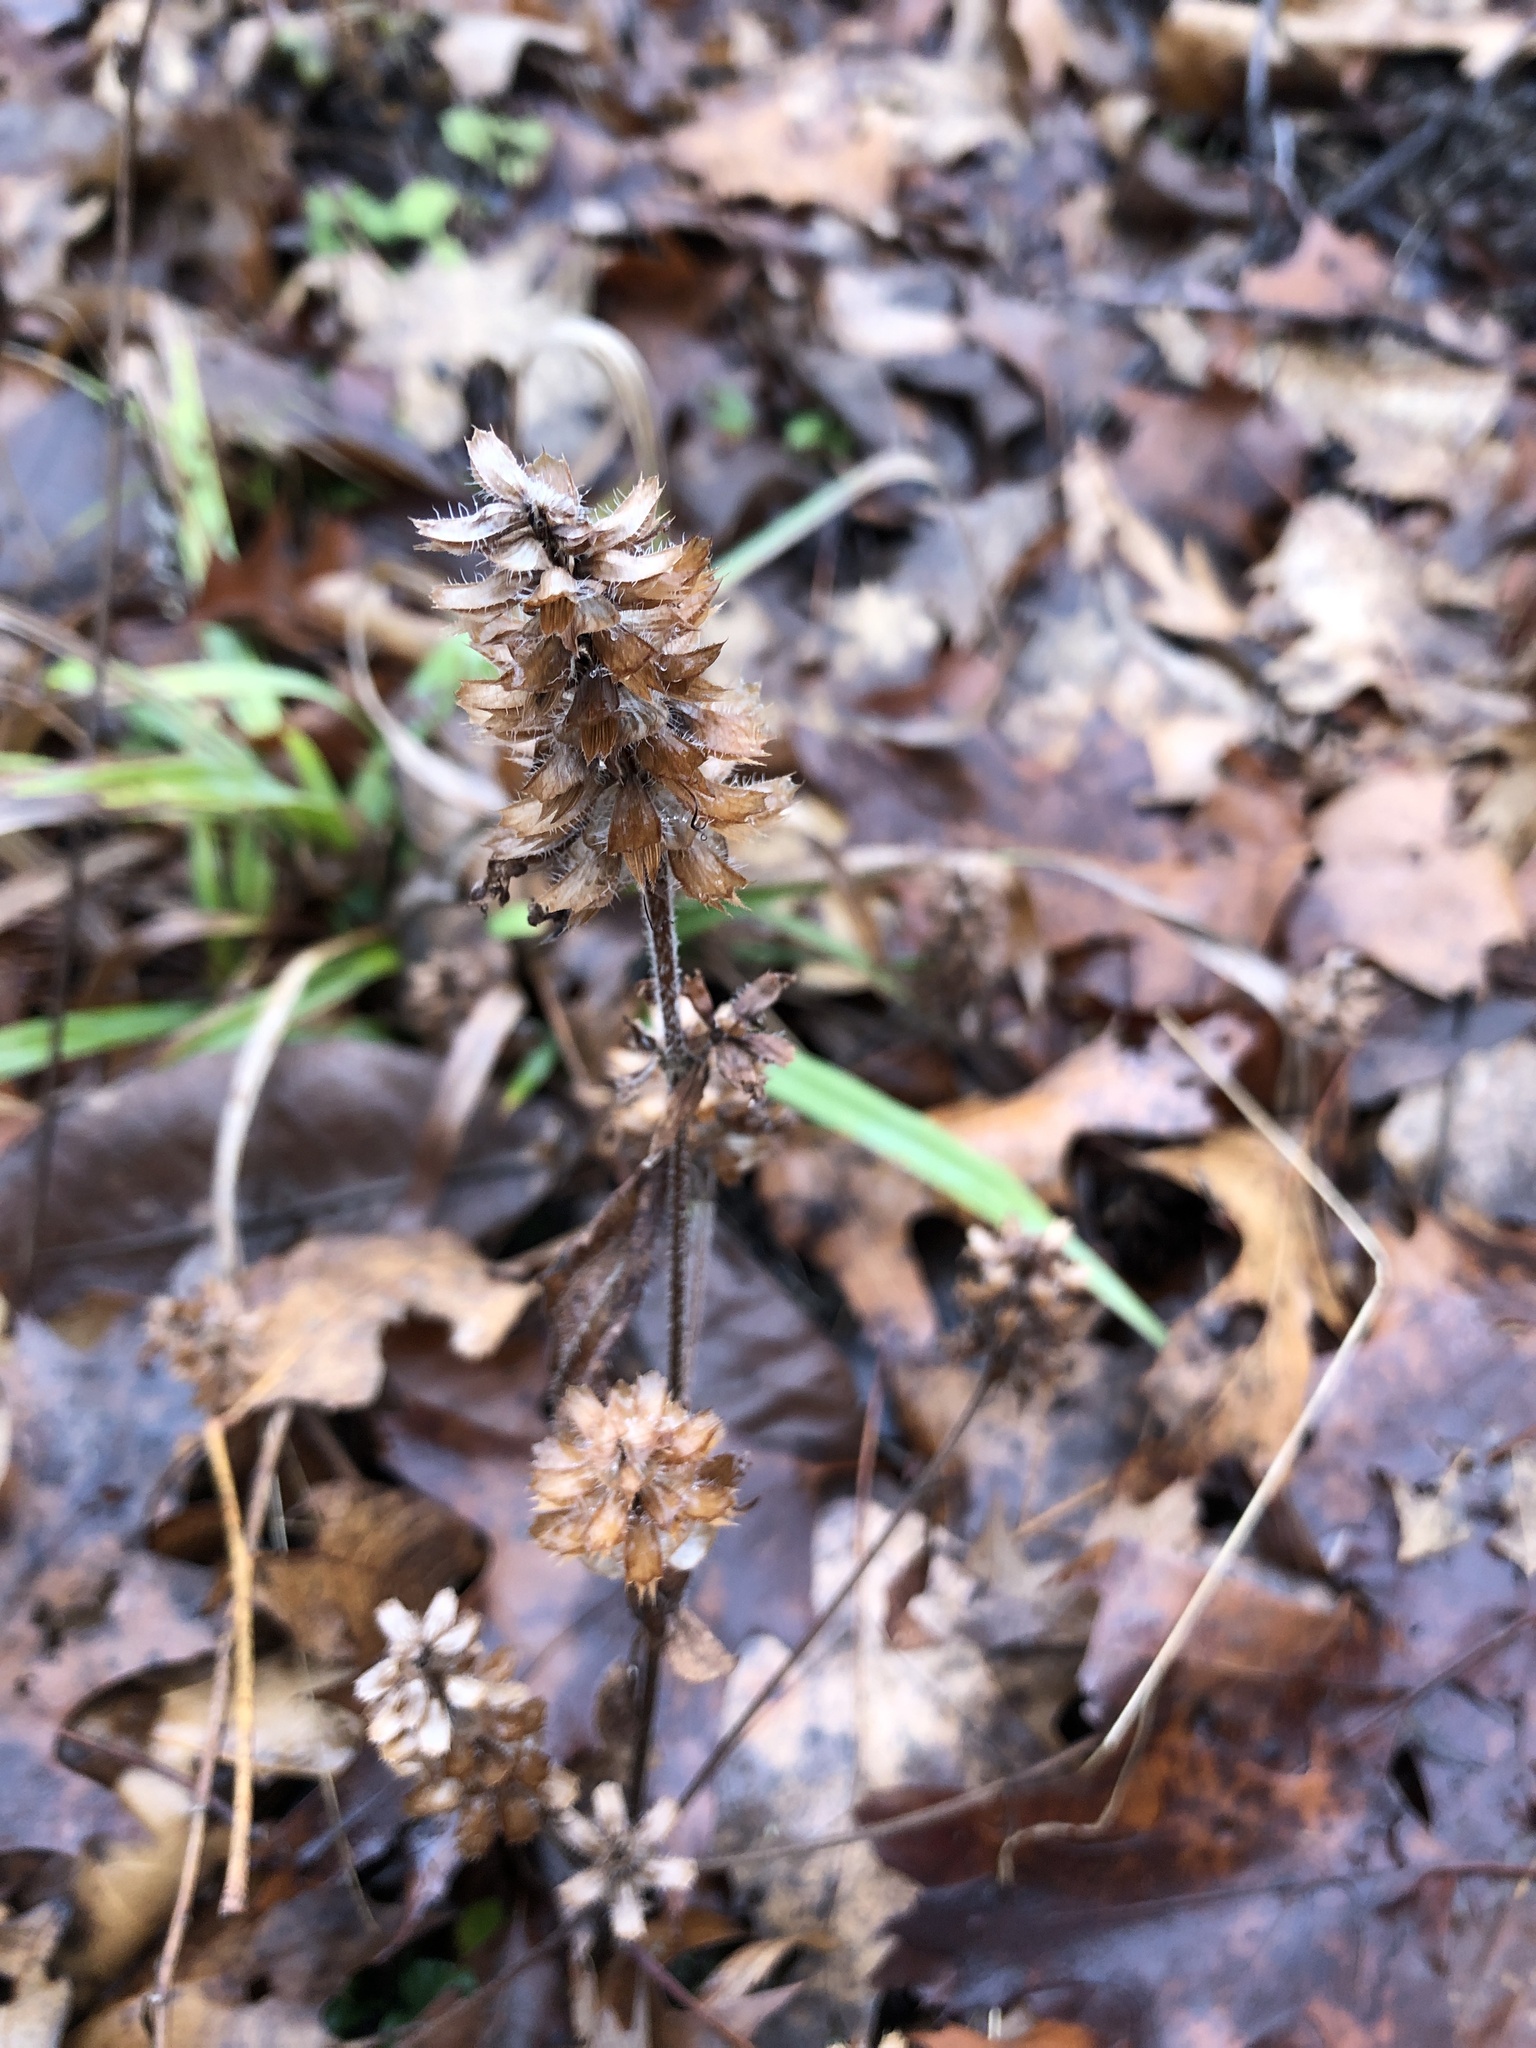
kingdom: Plantae
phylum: Tracheophyta
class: Magnoliopsida
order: Lamiales
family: Lamiaceae
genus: Prunella
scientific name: Prunella vulgaris
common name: Heal-all
